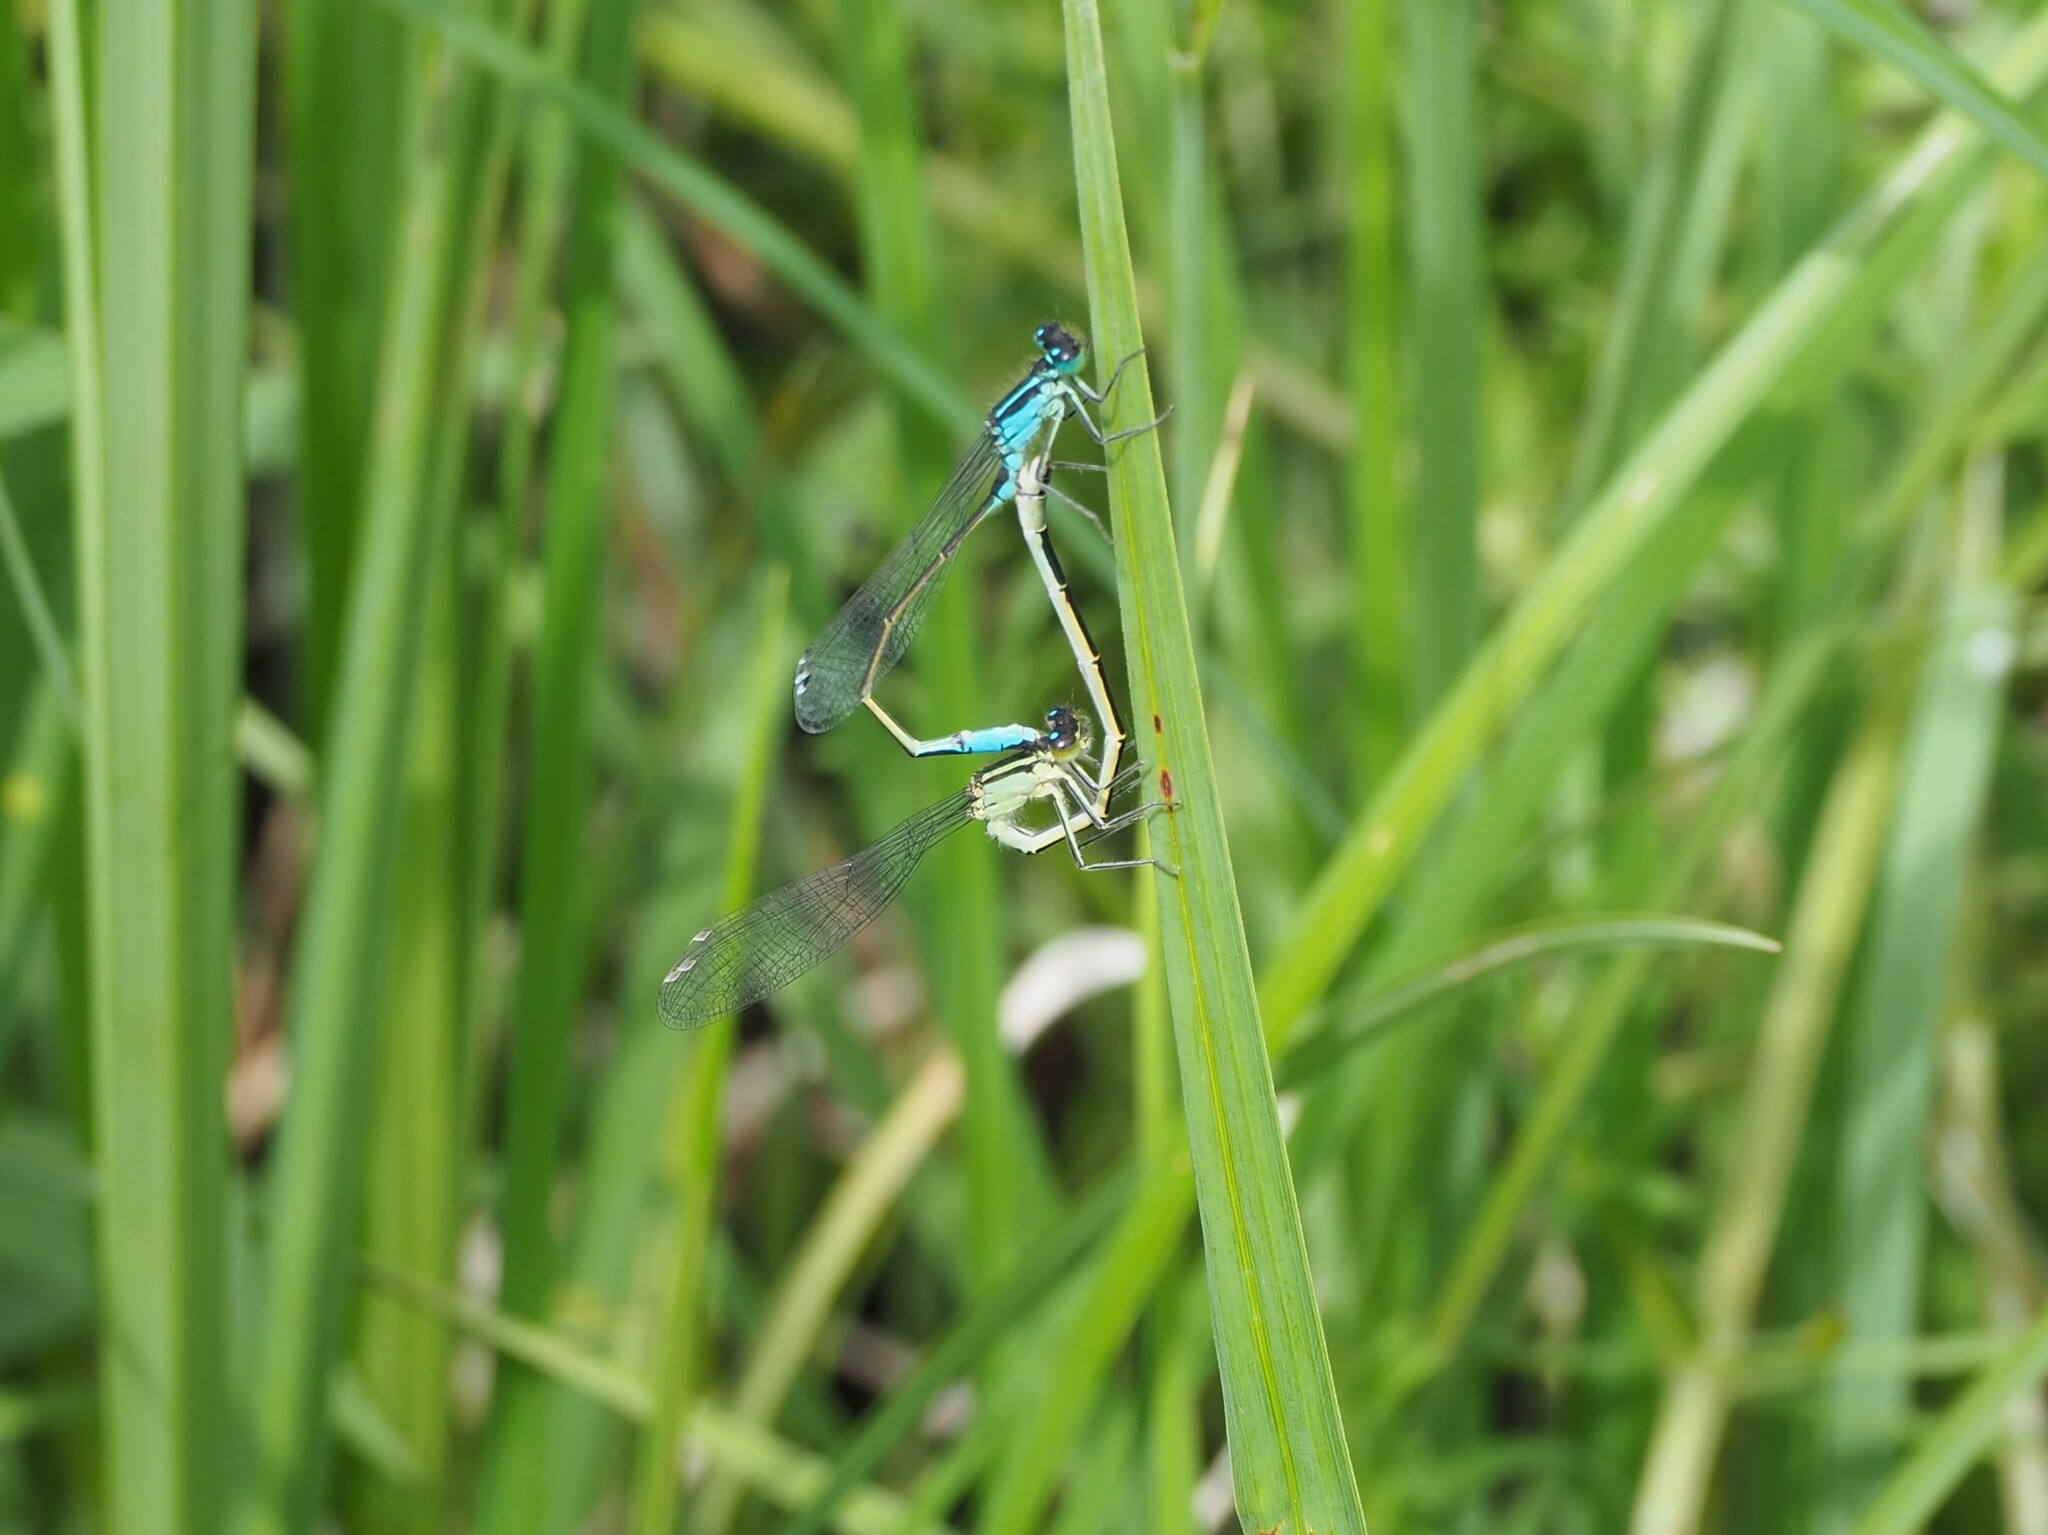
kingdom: Animalia
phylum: Arthropoda
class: Insecta
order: Odonata
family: Coenagrionidae
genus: Ischnura
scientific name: Ischnura elegans
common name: Blue-tailed damselfly
